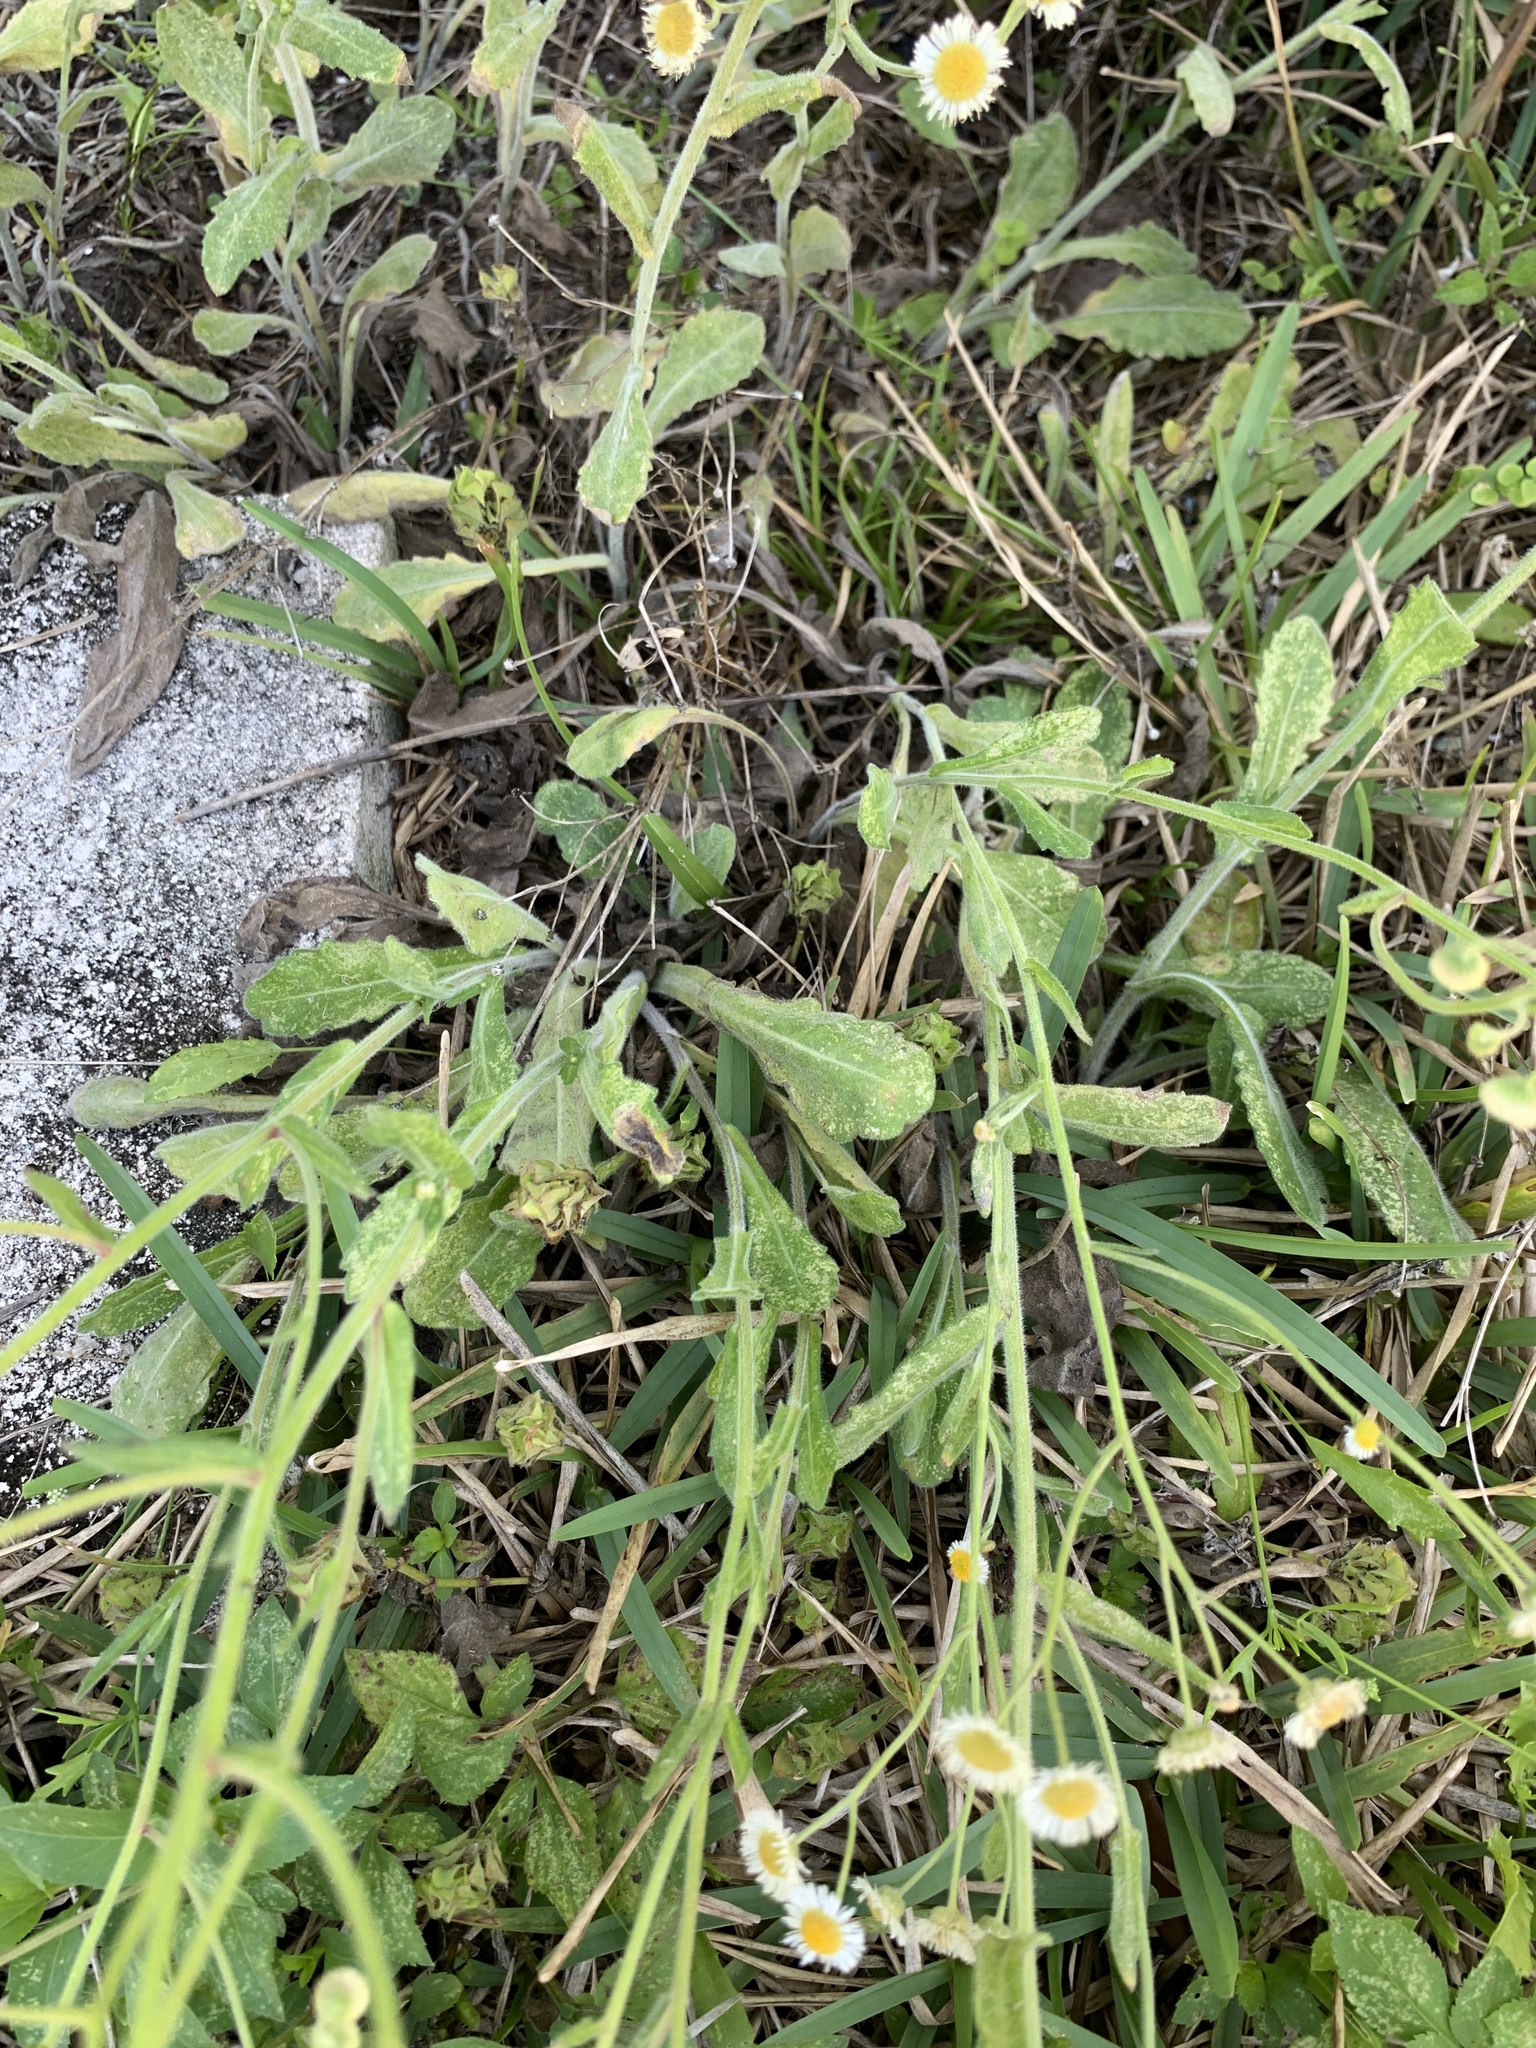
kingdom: Plantae
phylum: Tracheophyta
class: Magnoliopsida
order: Asterales
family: Asteraceae
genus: Erigeron
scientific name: Erigeron quercifolius
